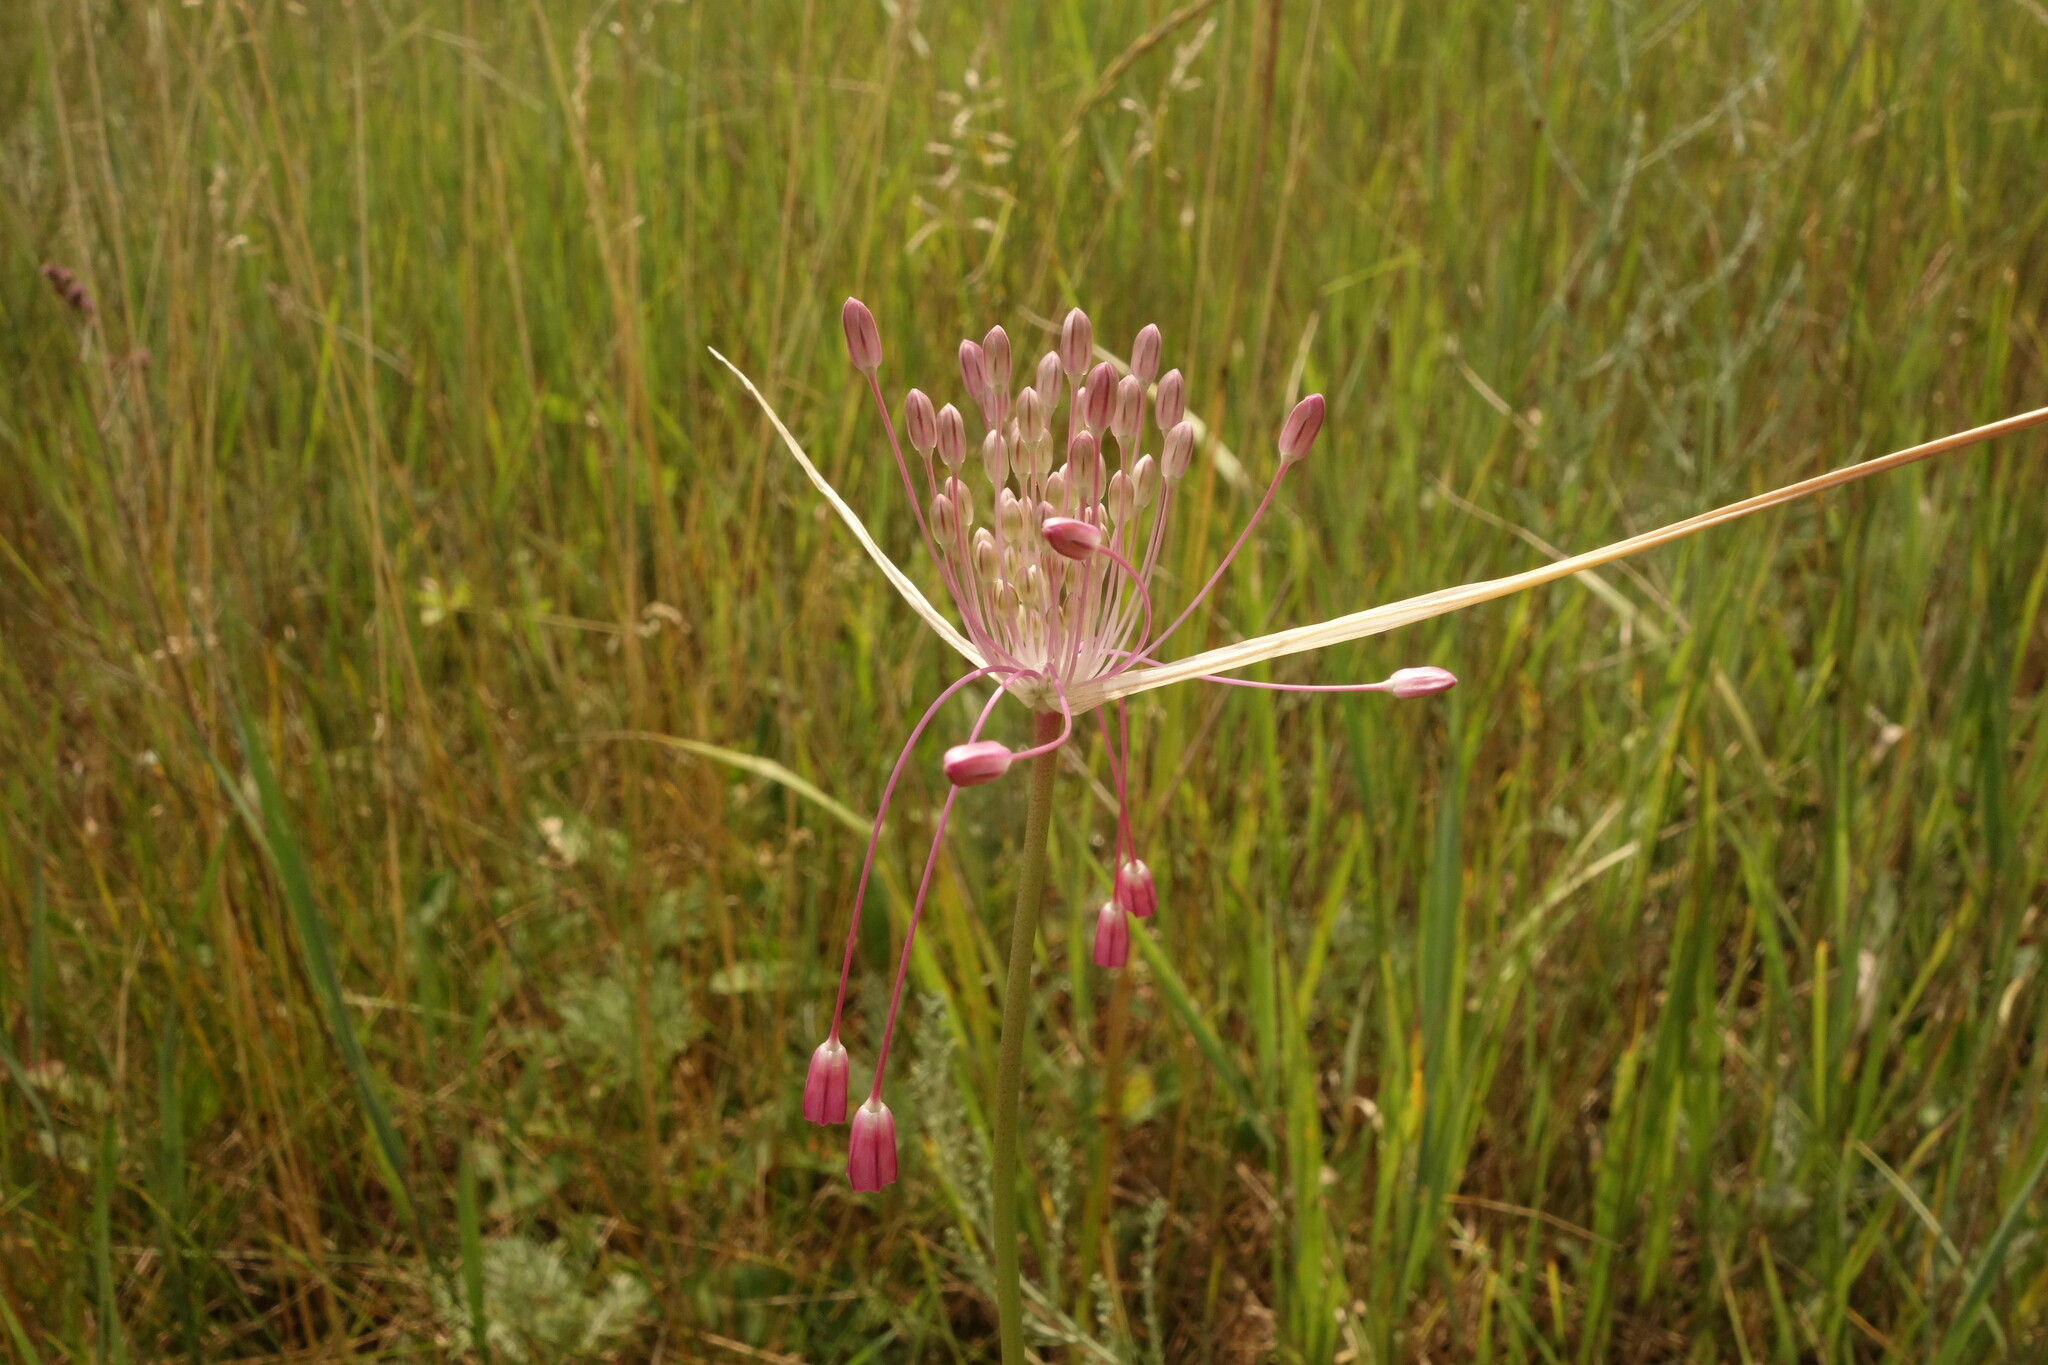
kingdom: Plantae
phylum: Tracheophyta
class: Liliopsida
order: Asparagales
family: Amaryllidaceae
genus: Allium
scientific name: Allium praescissum
